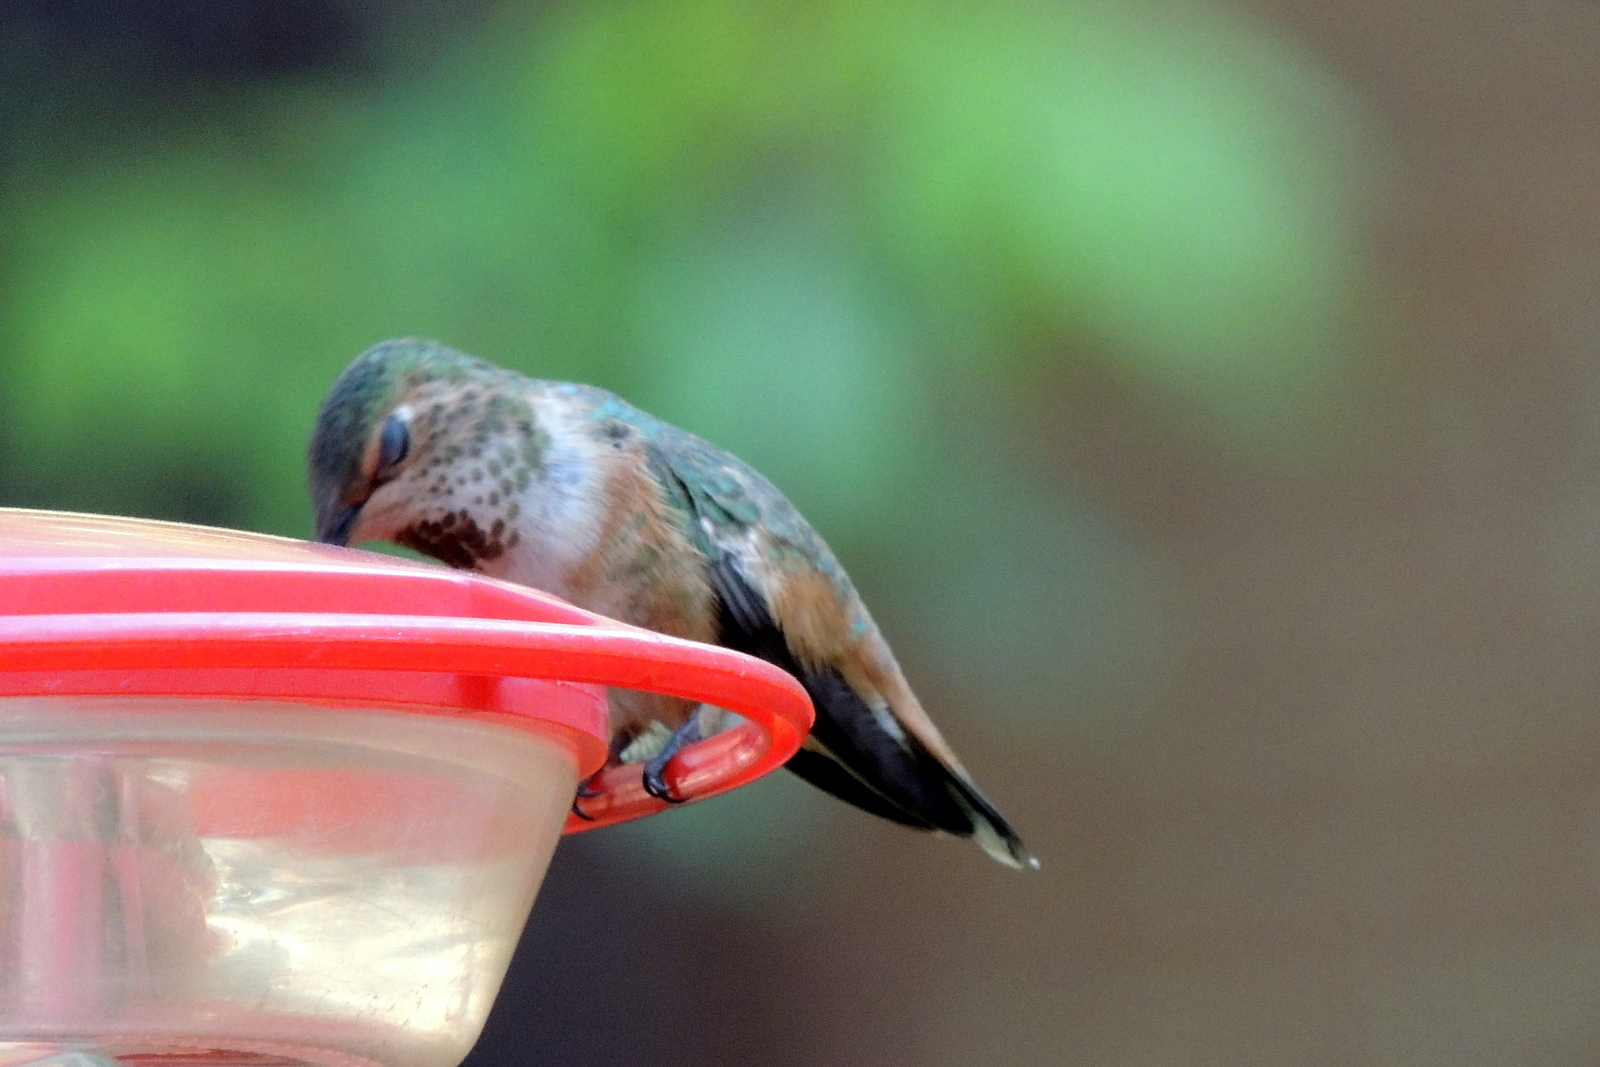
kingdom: Animalia
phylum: Chordata
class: Aves
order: Apodiformes
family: Trochilidae
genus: Selasphorus
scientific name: Selasphorus
